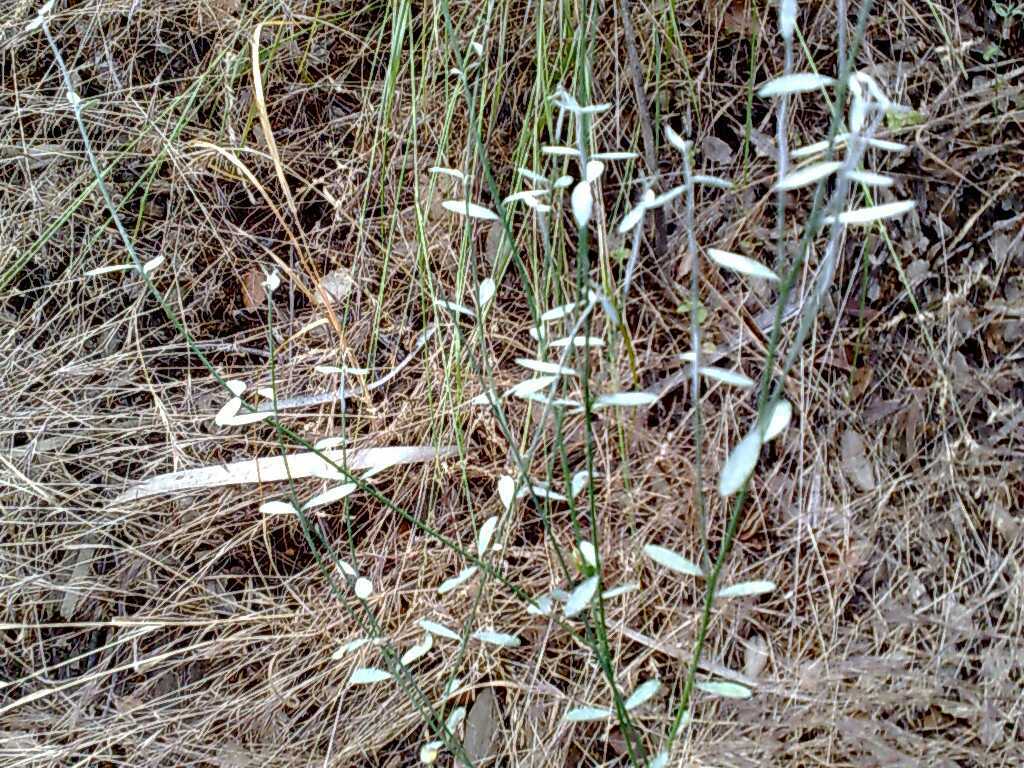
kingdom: Plantae
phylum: Tracheophyta
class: Magnoliopsida
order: Fabales
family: Fabaceae
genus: Spartium
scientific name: Spartium junceum
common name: Spanish broom
